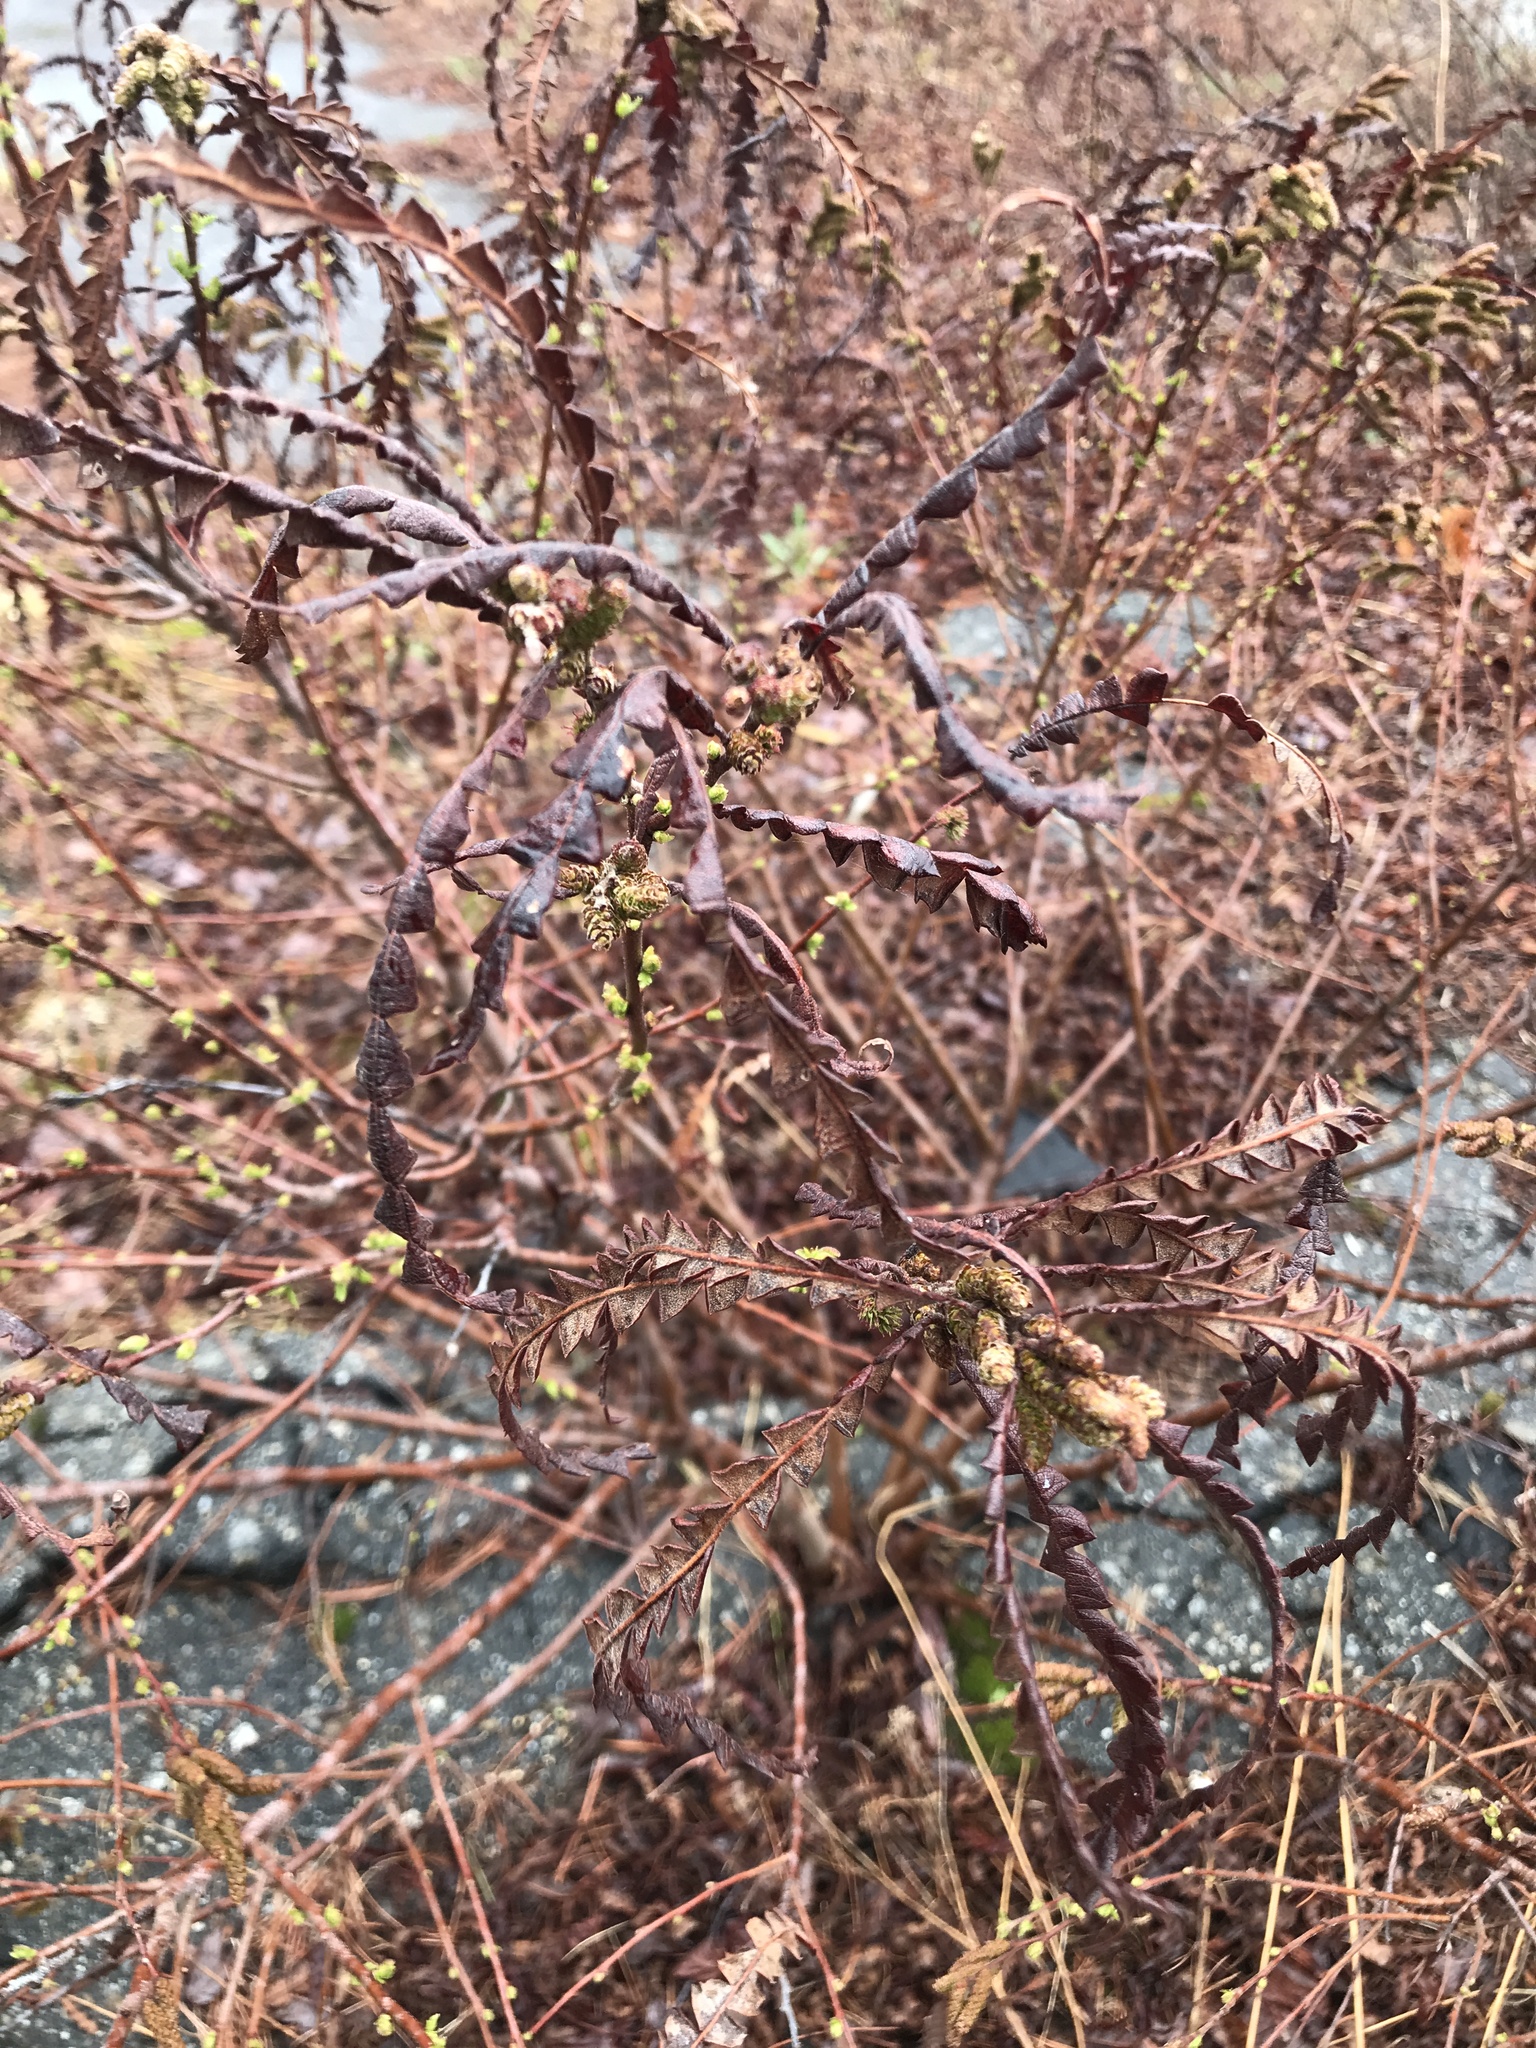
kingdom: Plantae
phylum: Tracheophyta
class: Magnoliopsida
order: Fagales
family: Myricaceae
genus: Comptonia
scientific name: Comptonia peregrina
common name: Sweet-fern
